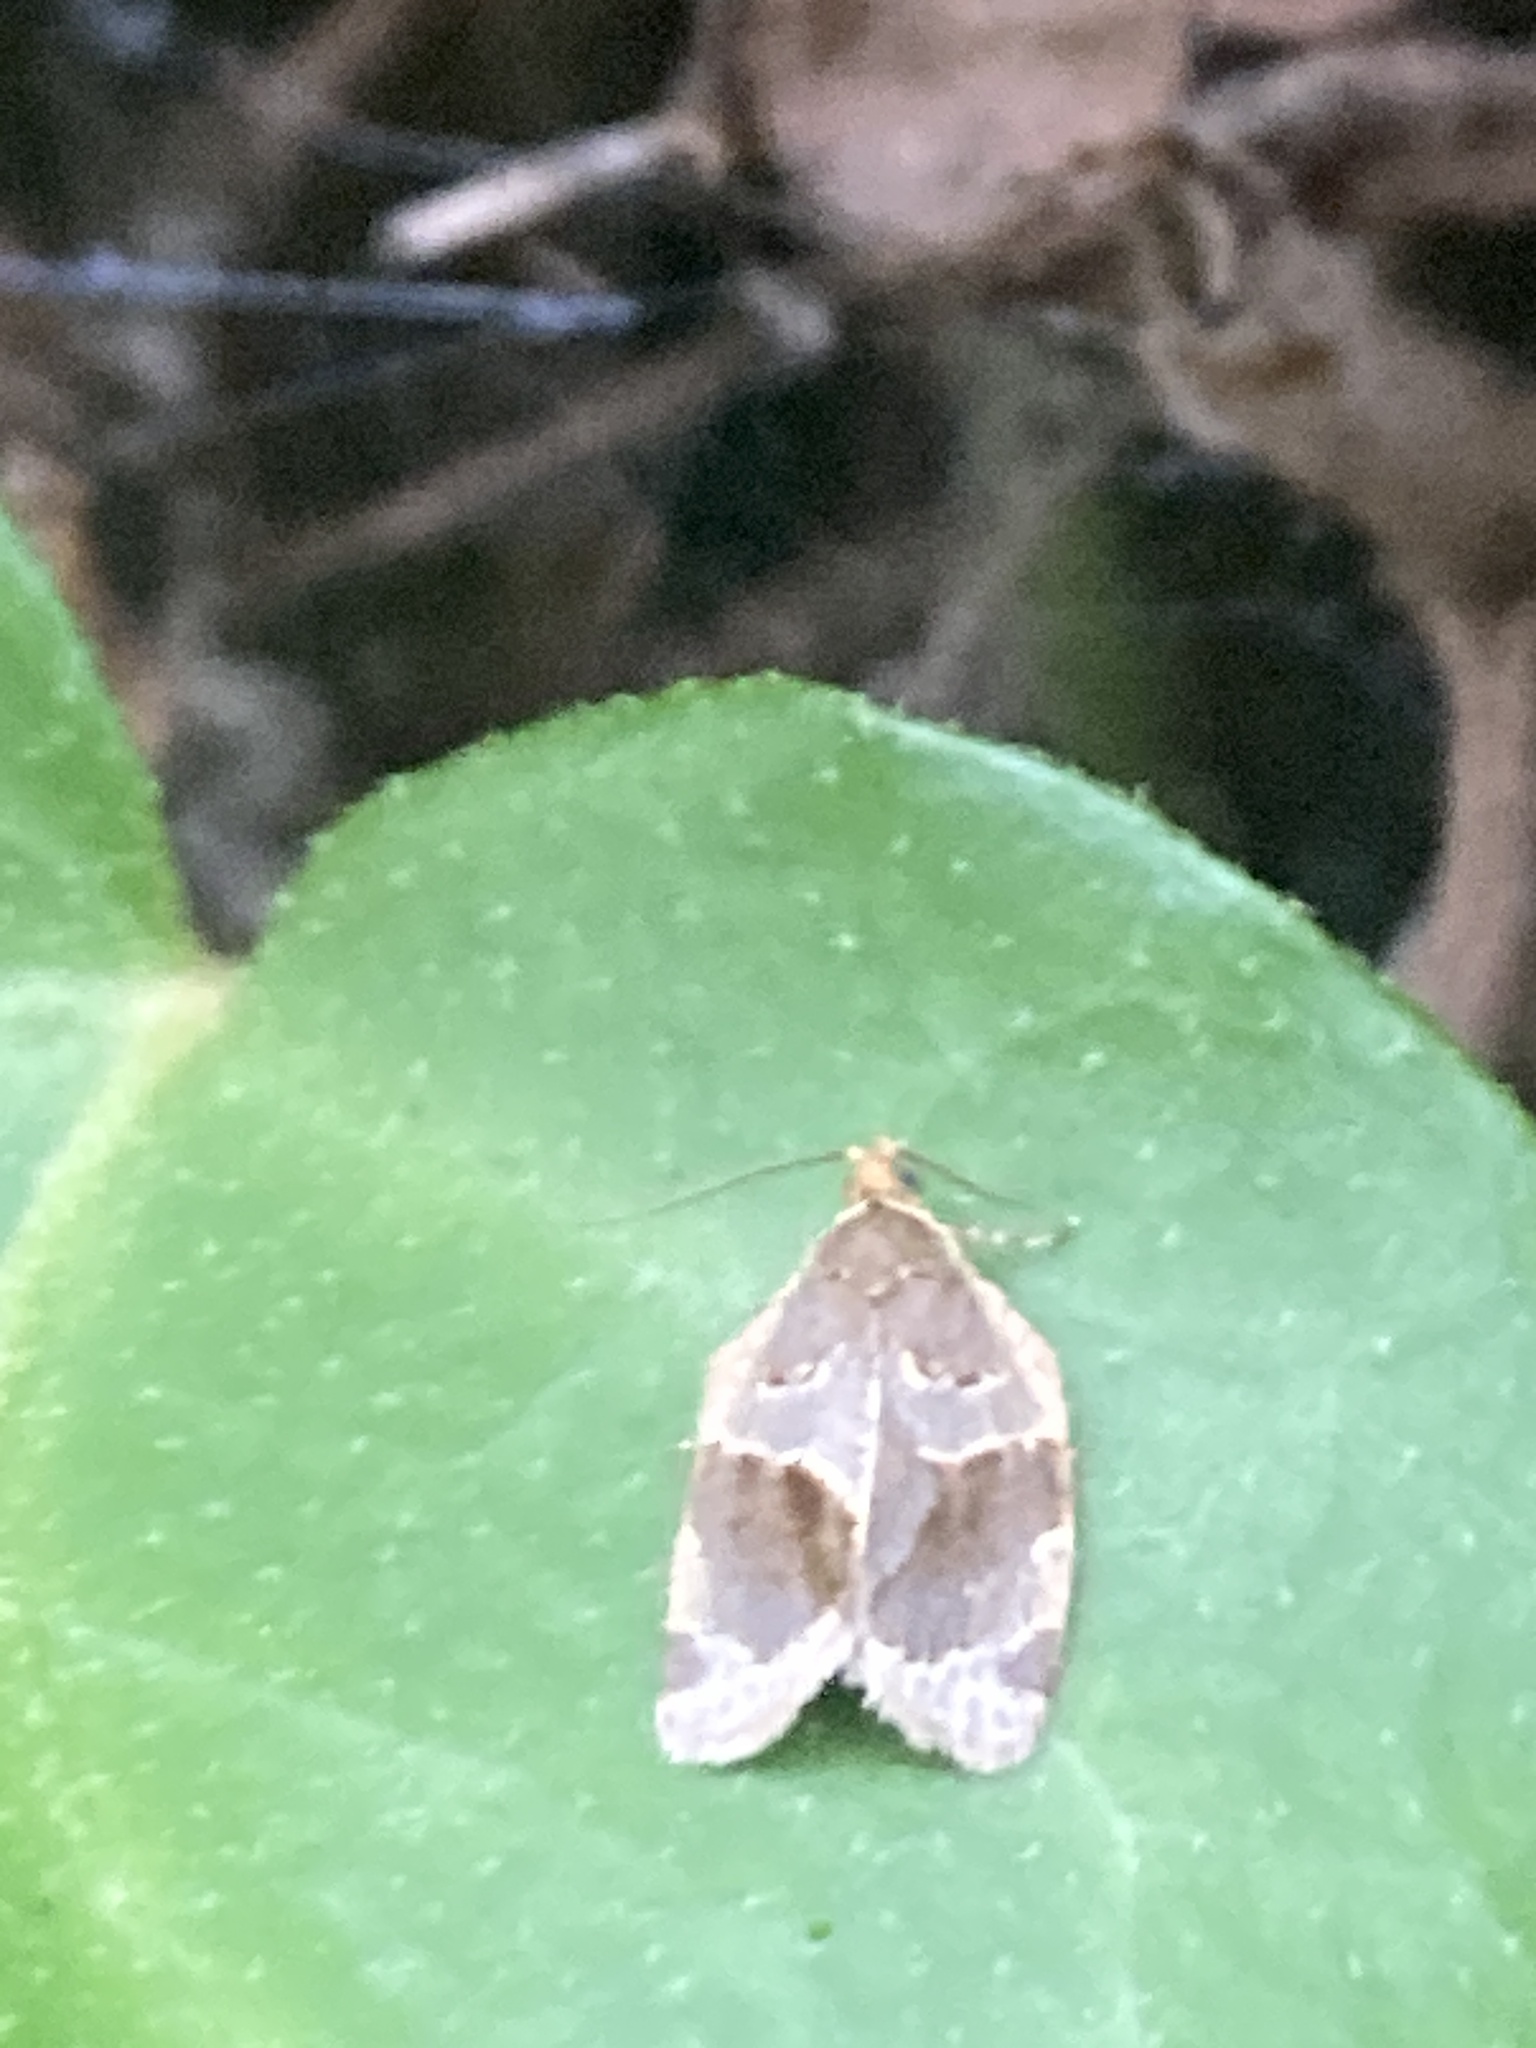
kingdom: Animalia
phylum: Arthropoda
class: Insecta
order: Lepidoptera
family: Tortricidae
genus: Clepsis
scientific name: Clepsis dumicolana
